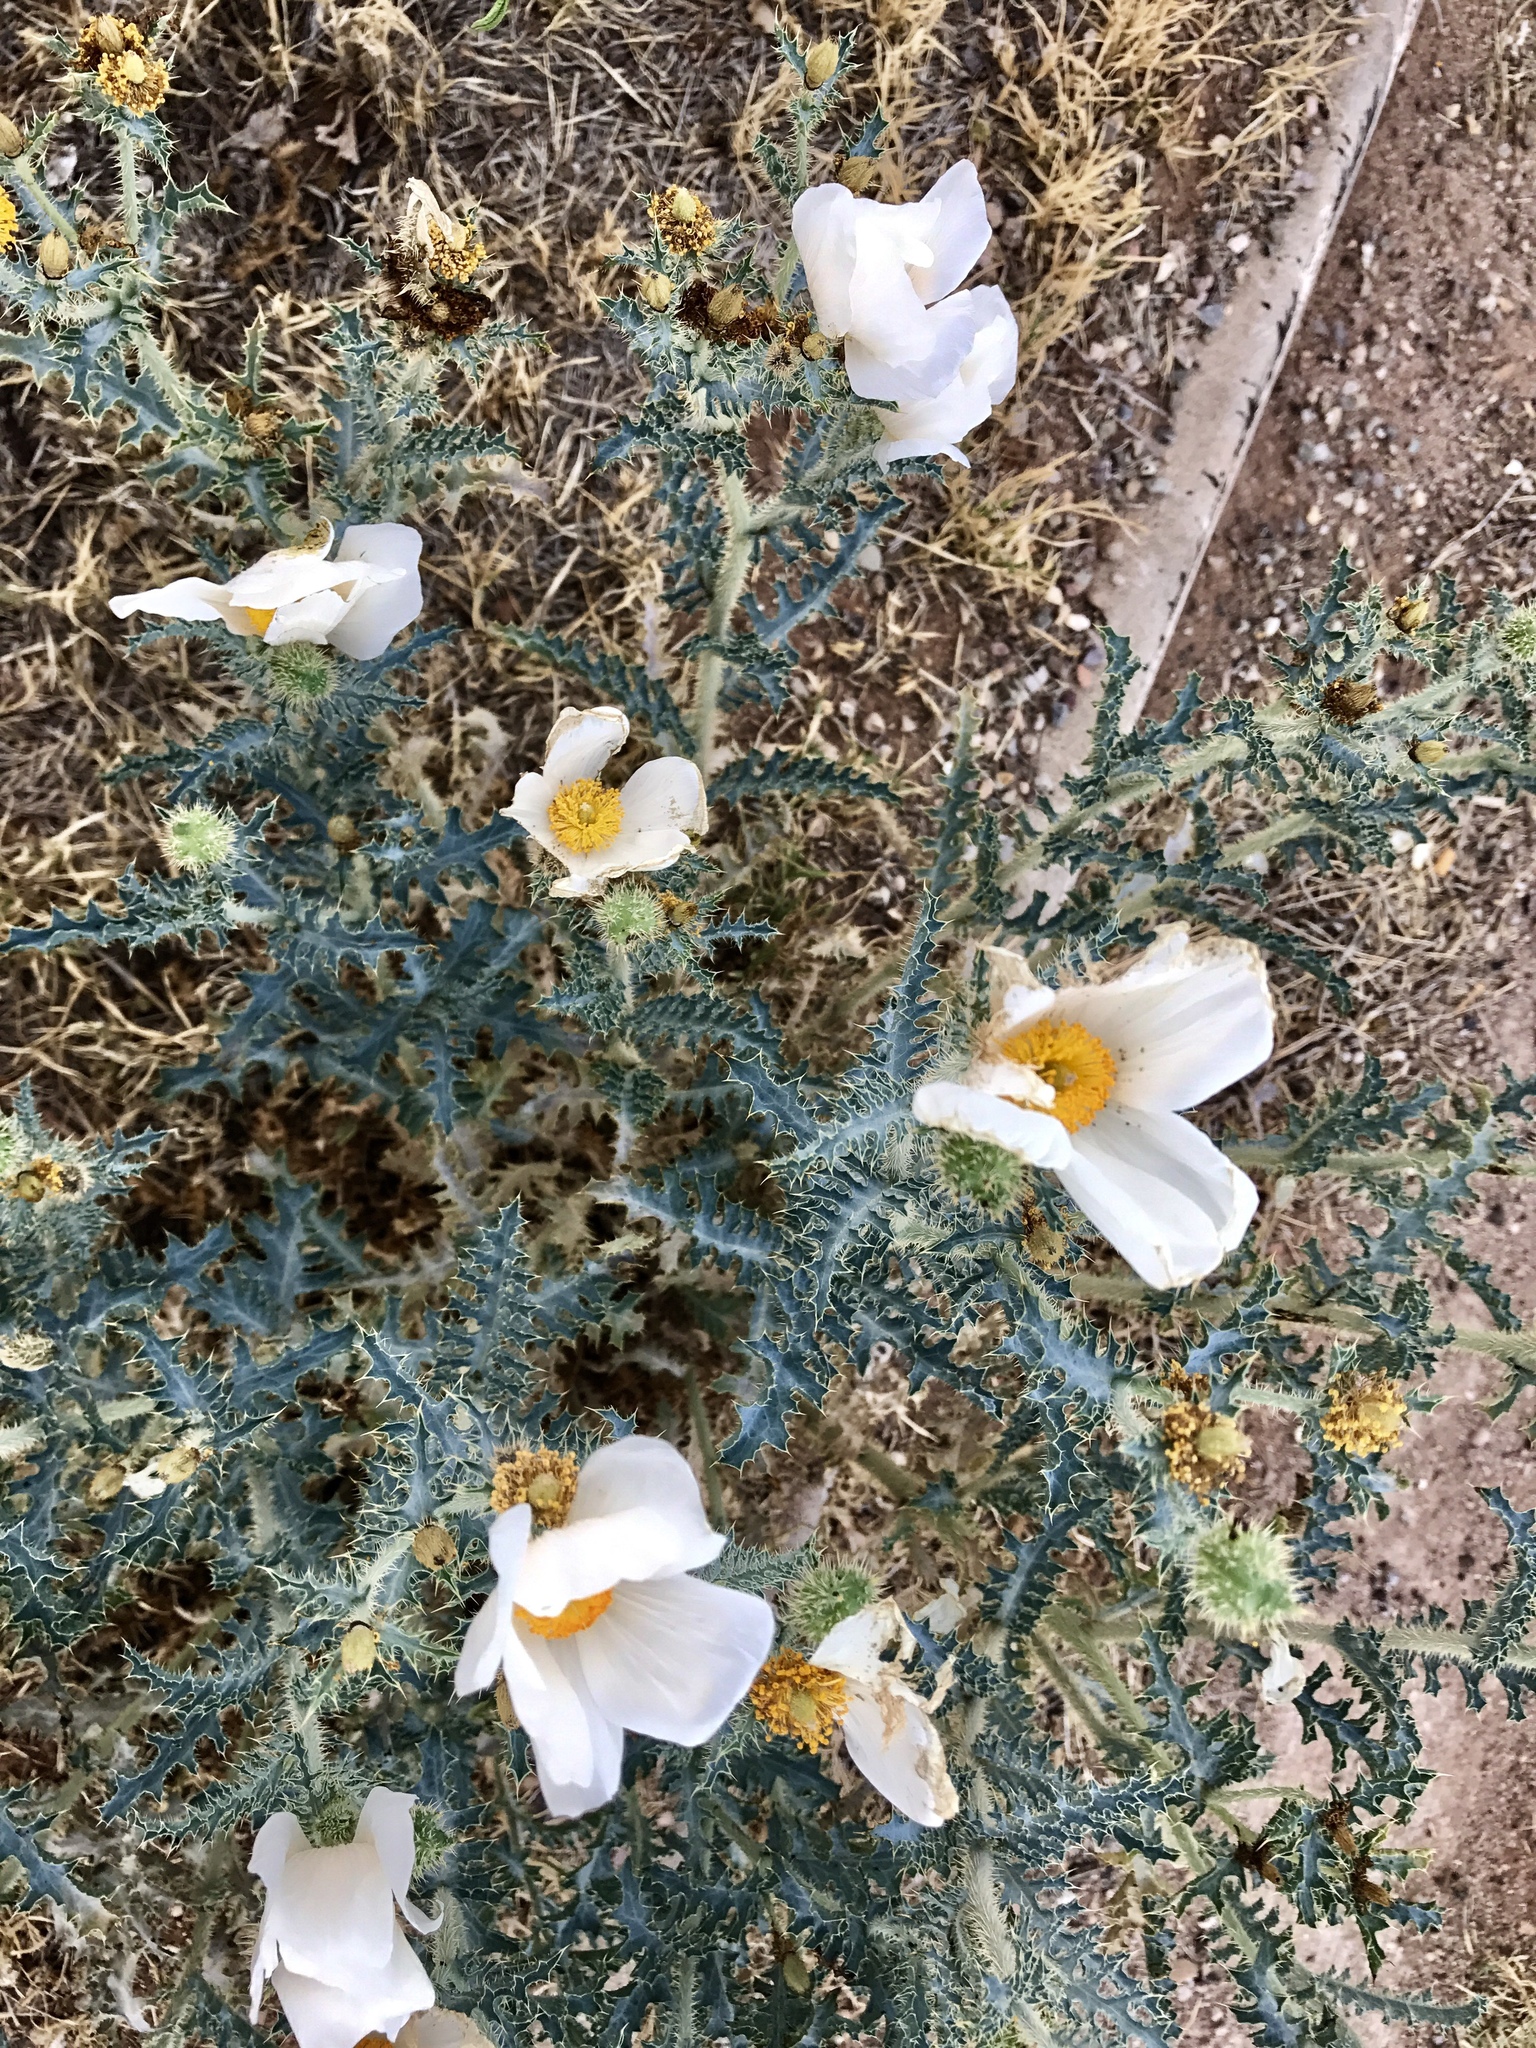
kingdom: Plantae
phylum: Tracheophyta
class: Magnoliopsida
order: Ranunculales
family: Papaveraceae
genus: Argemone
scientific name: Argemone pleiacantha
